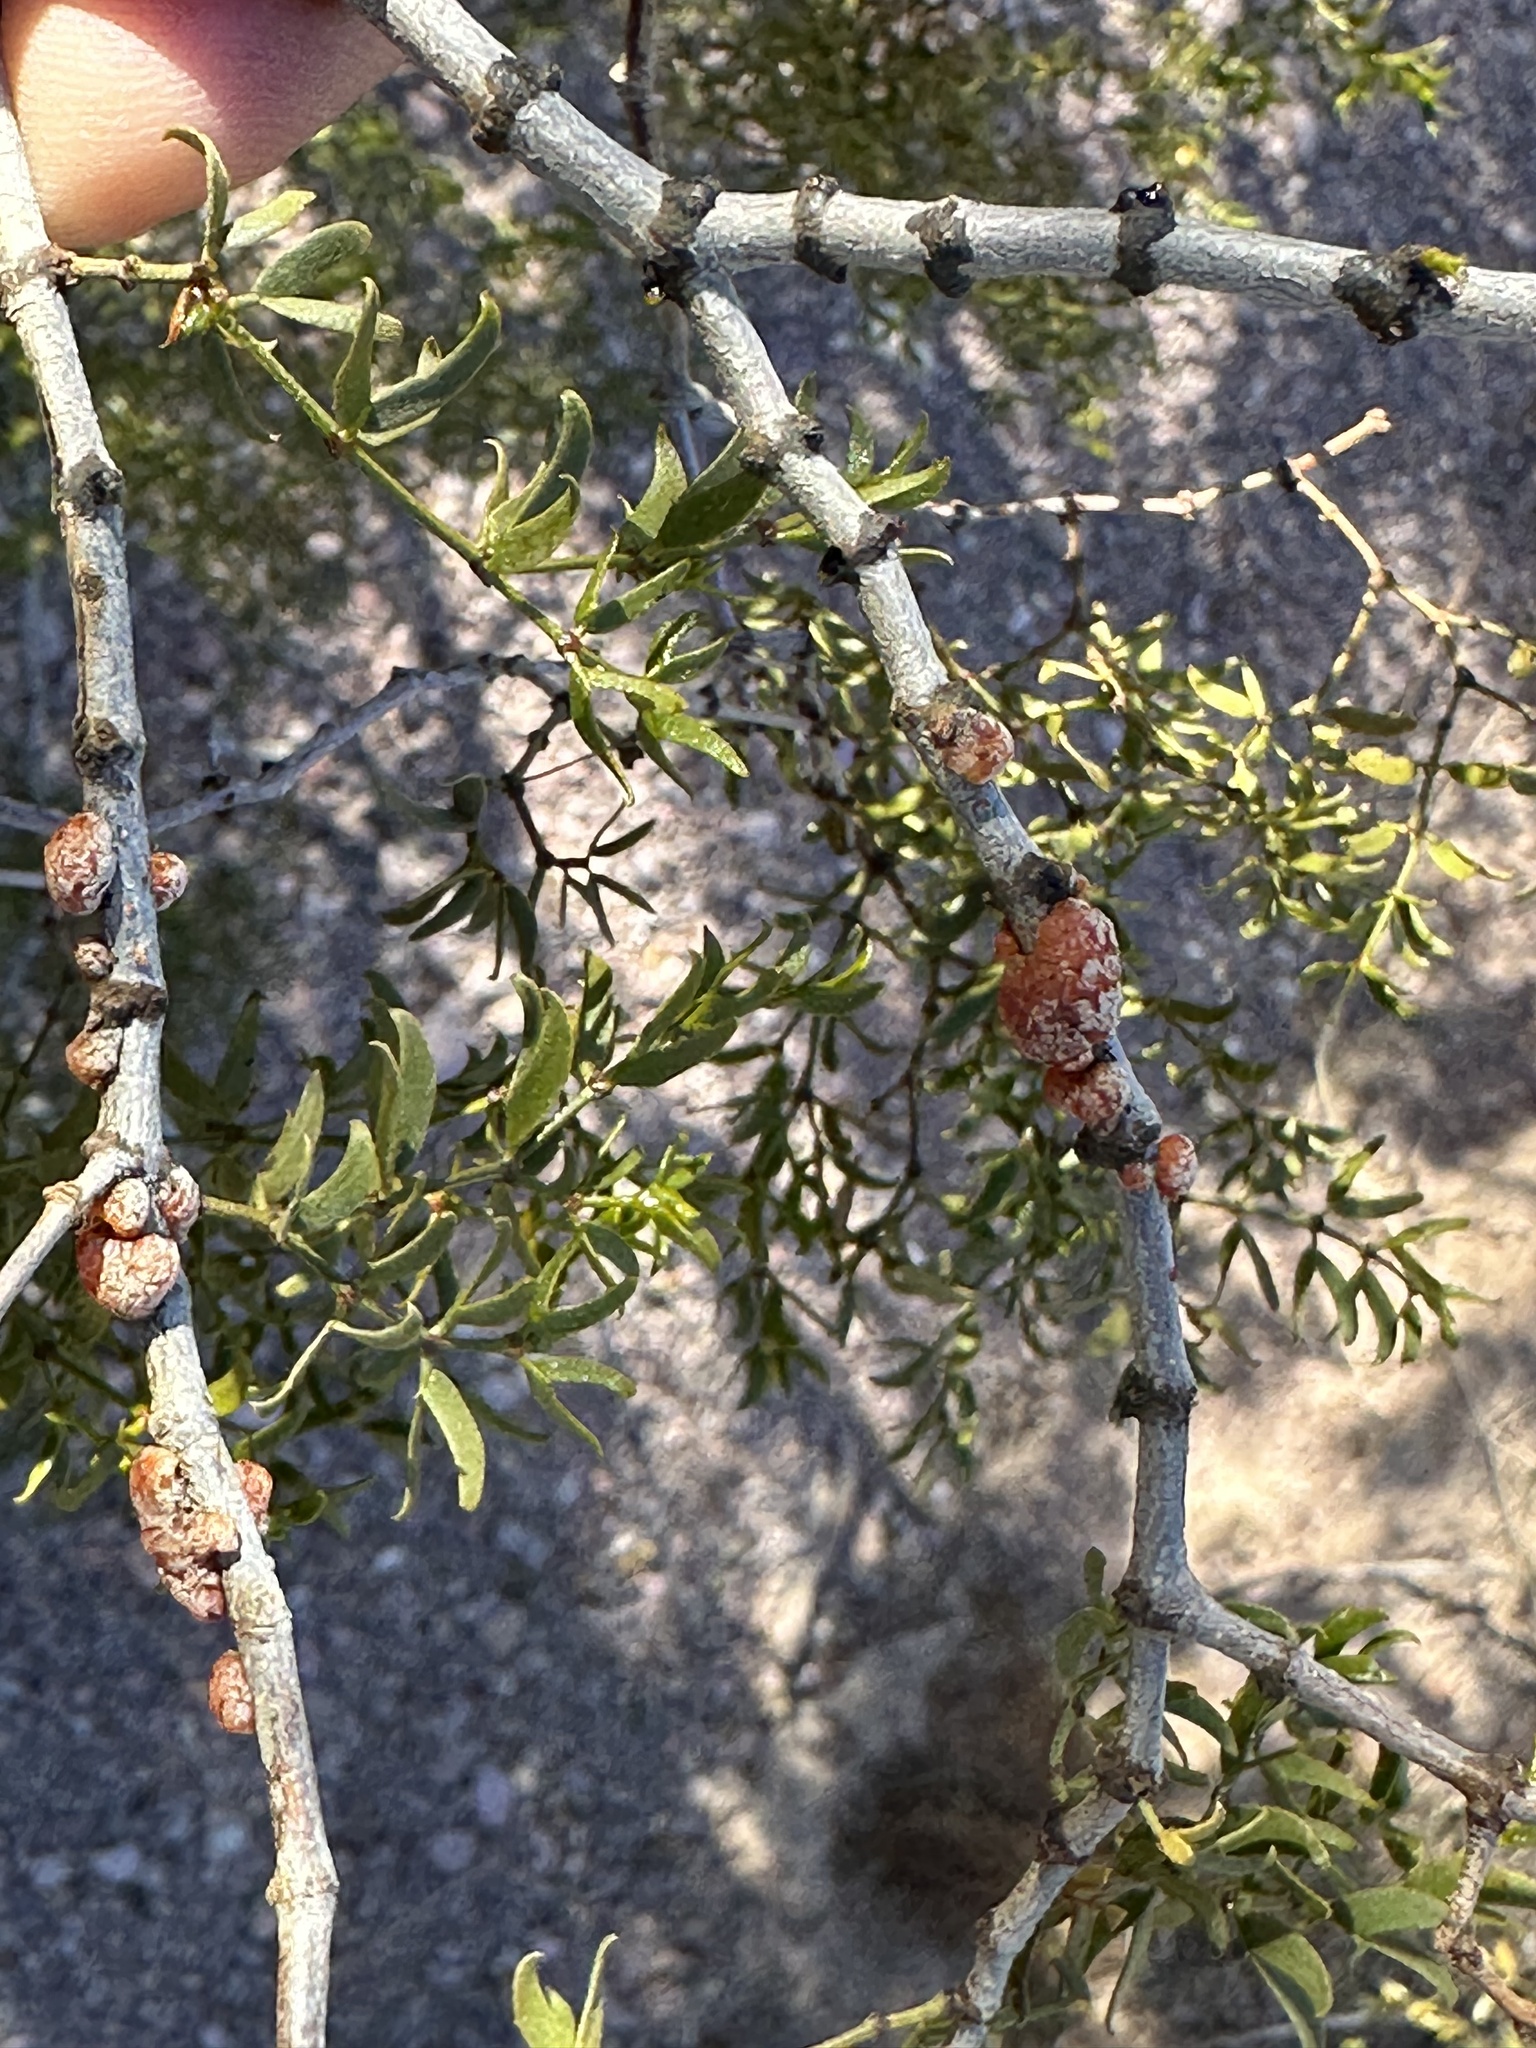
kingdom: Animalia
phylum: Arthropoda
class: Insecta
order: Hemiptera
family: Kerriidae
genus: Tachardiella
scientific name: Tachardiella larreae
